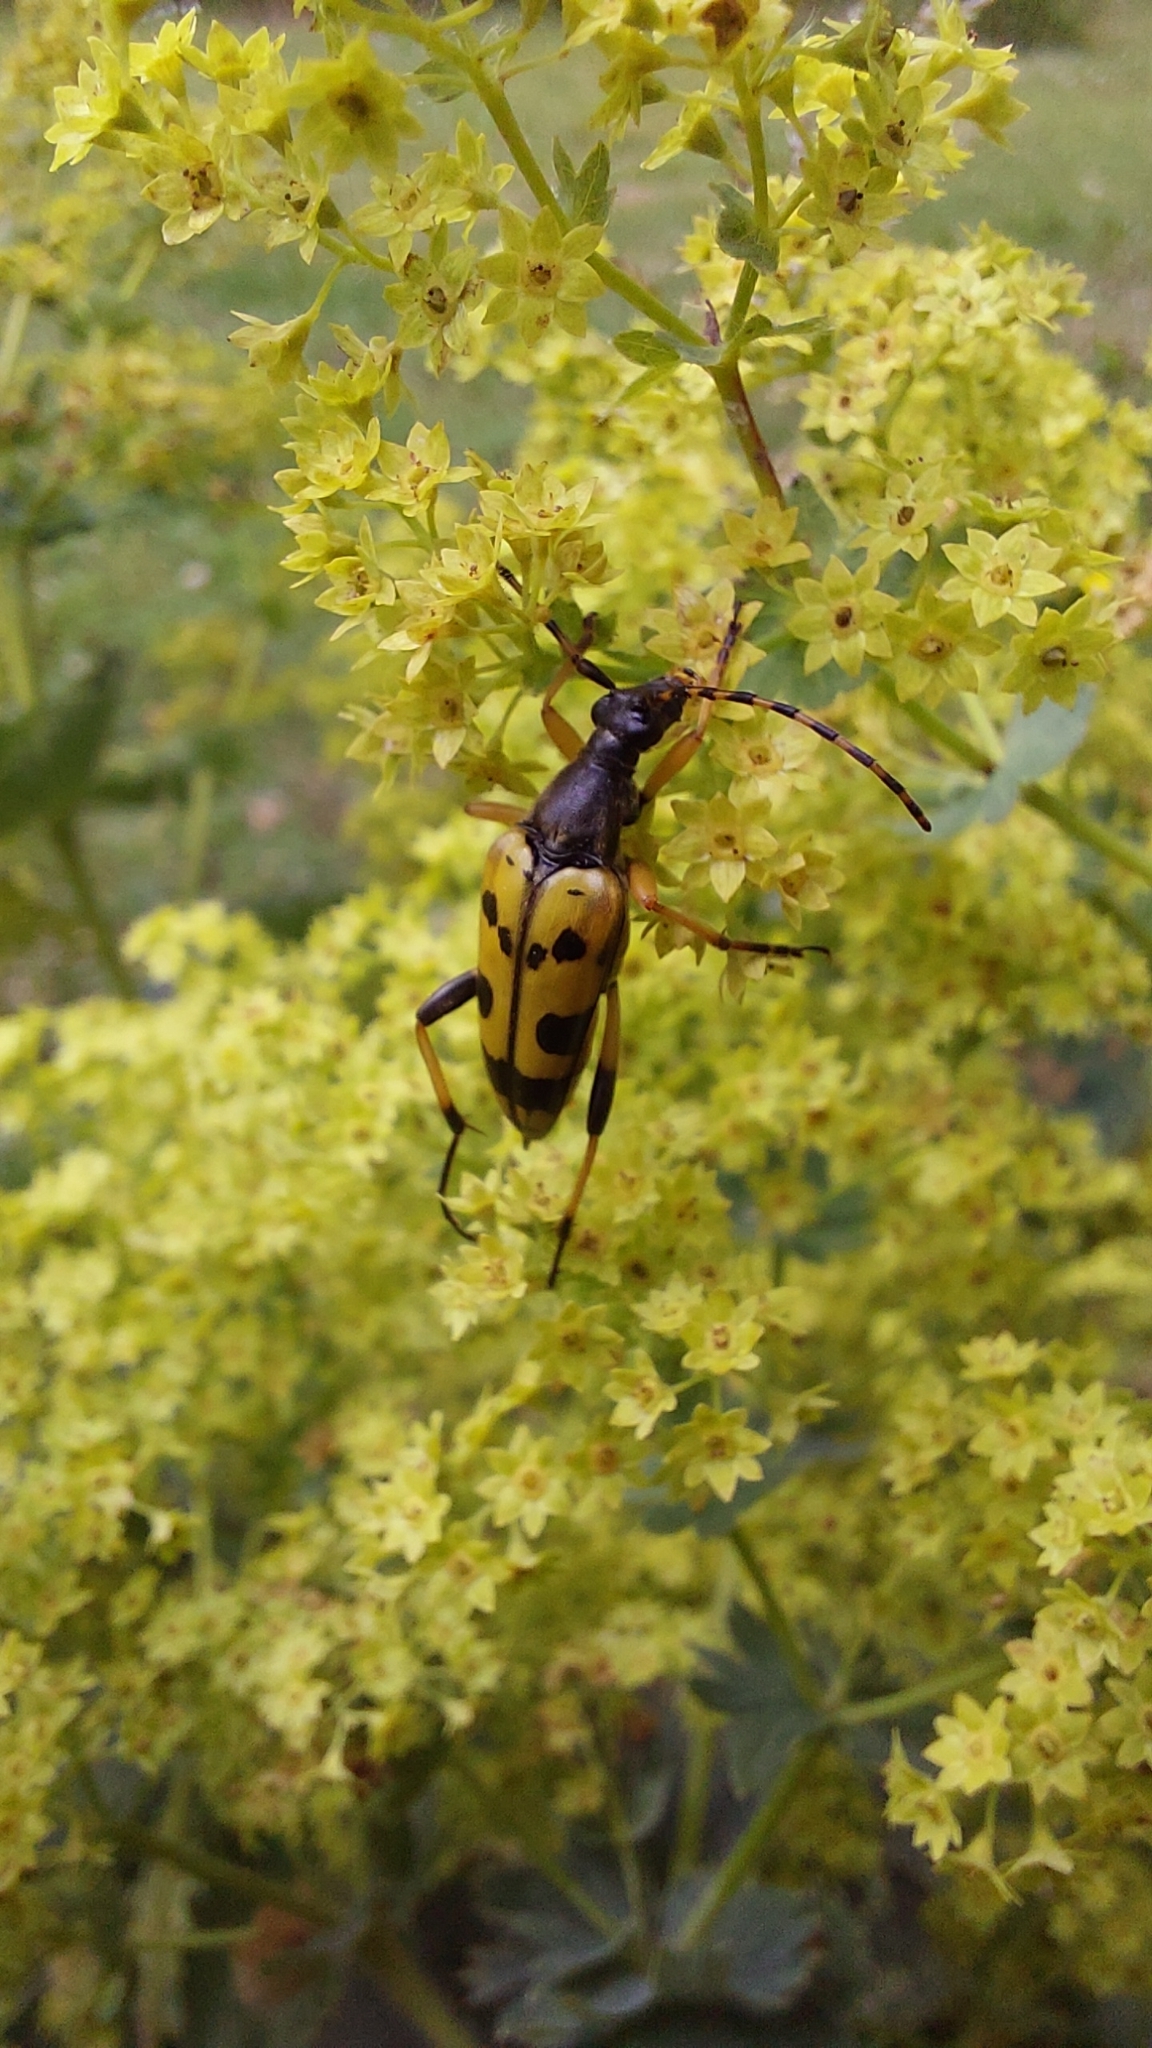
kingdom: Animalia
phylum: Arthropoda
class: Insecta
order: Coleoptera
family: Cerambycidae
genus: Rutpela
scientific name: Rutpela maculata
